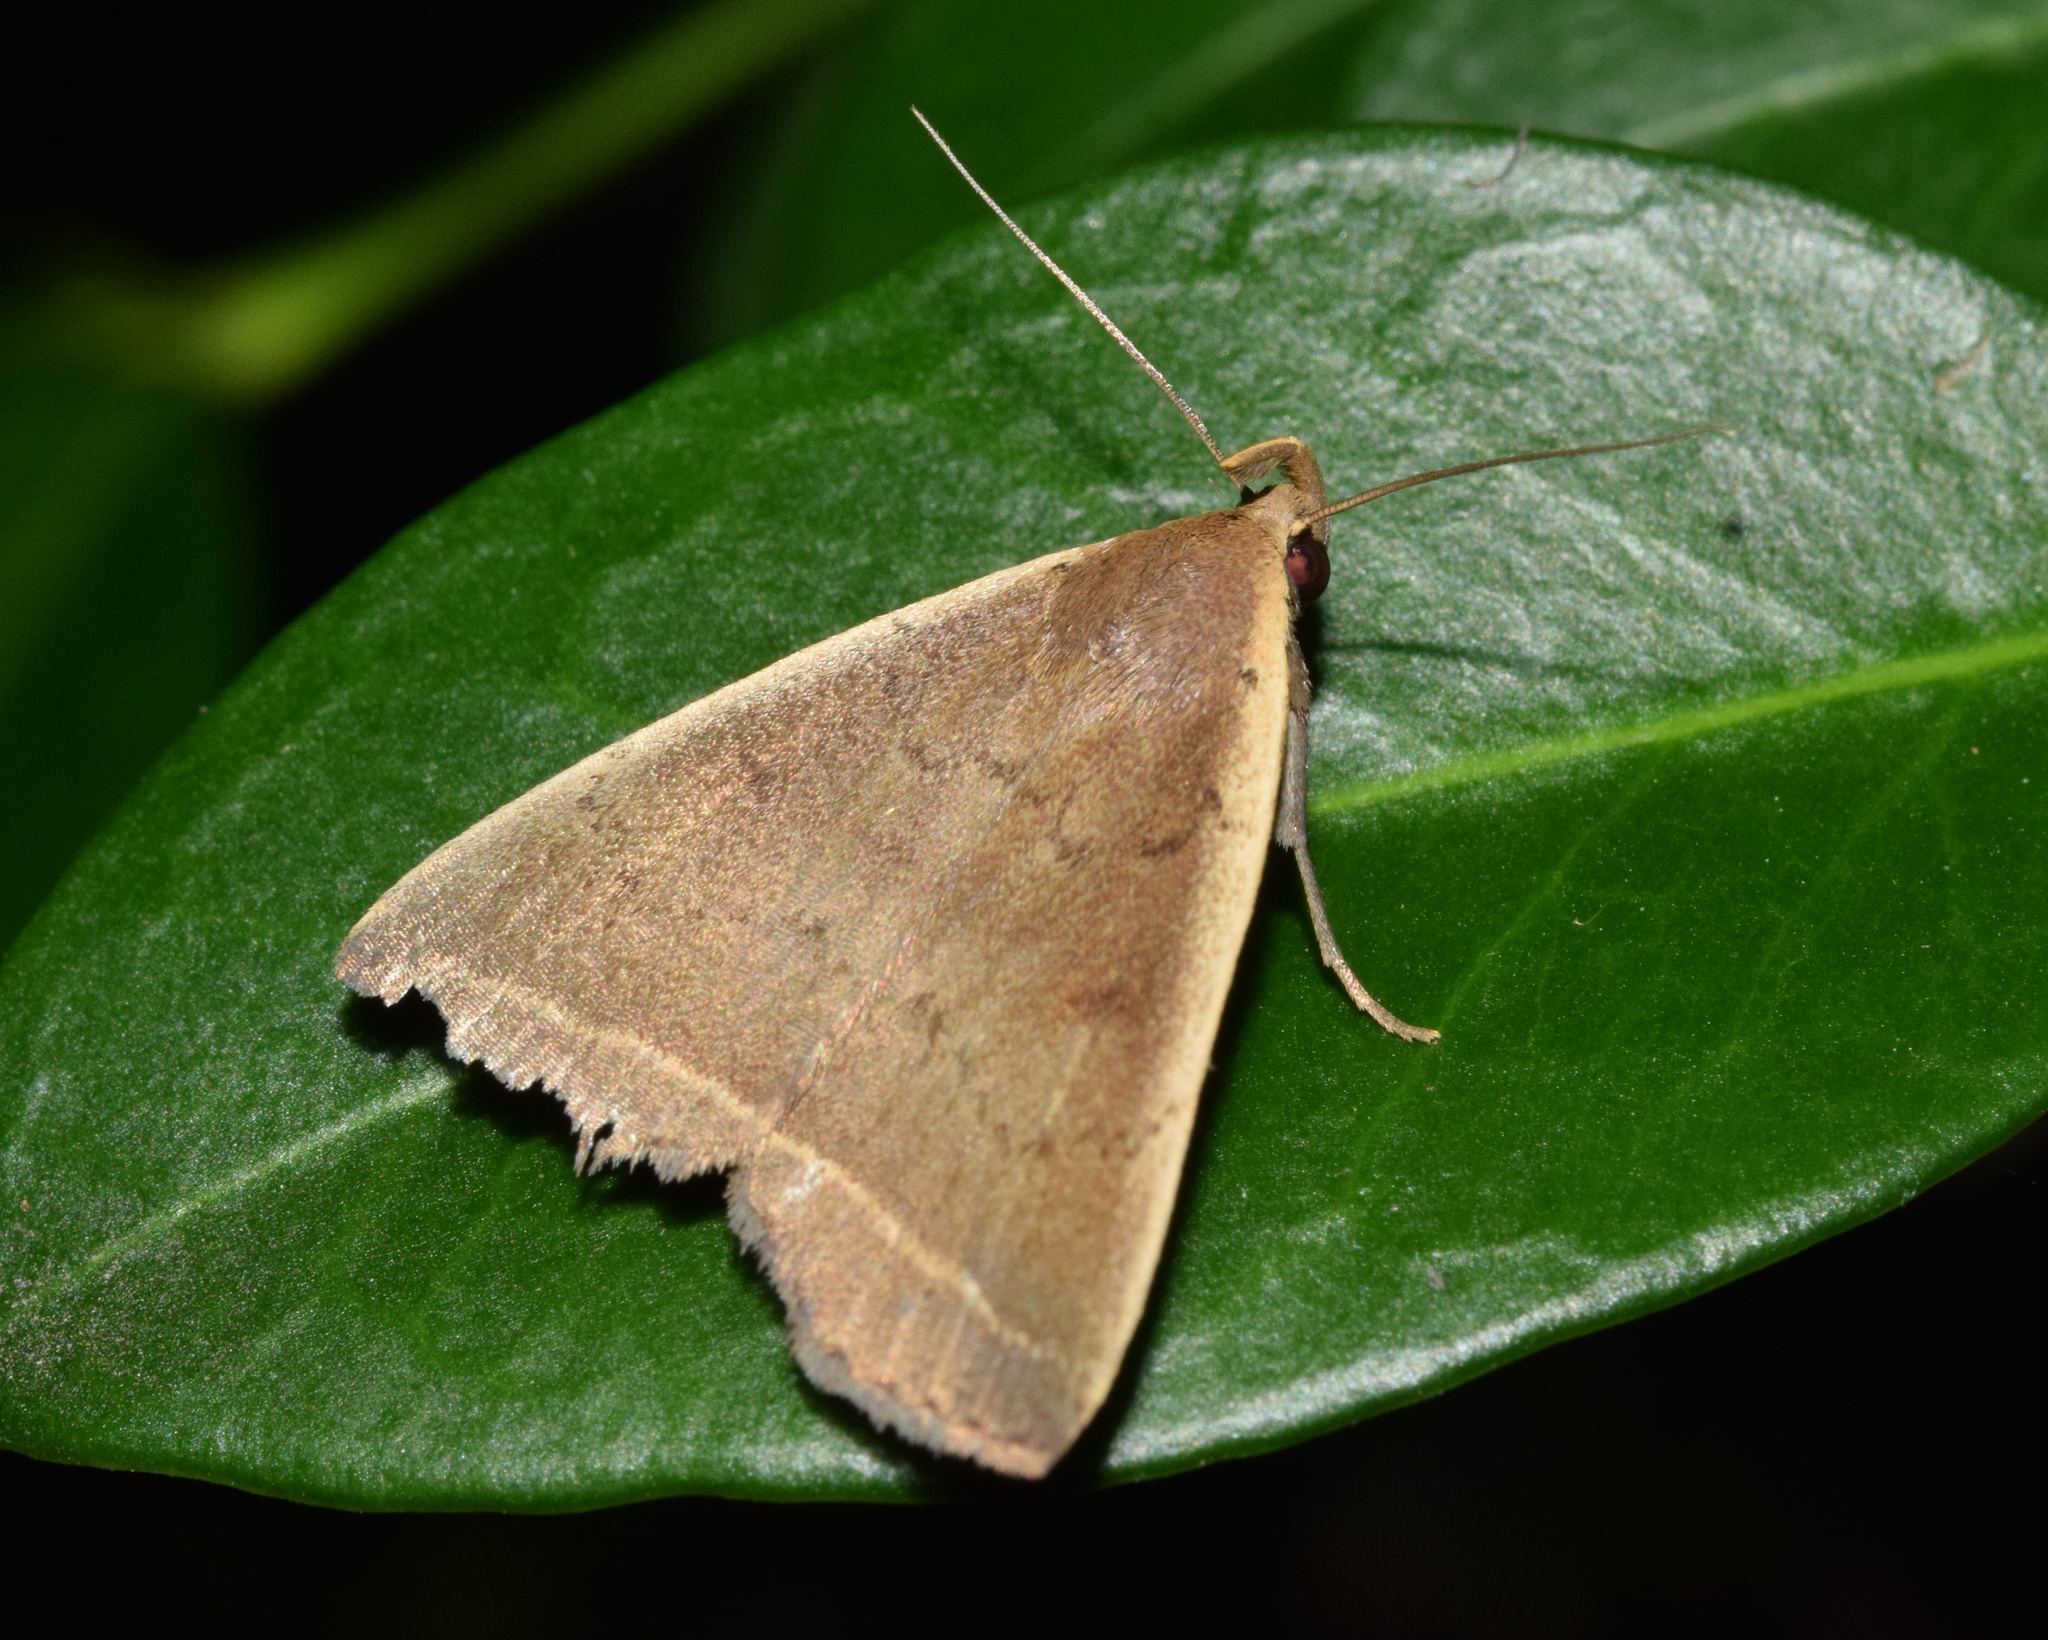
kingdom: Animalia
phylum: Arthropoda
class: Insecta
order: Lepidoptera
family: Erebidae
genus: Simplicia
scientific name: Simplicia extinctalis
